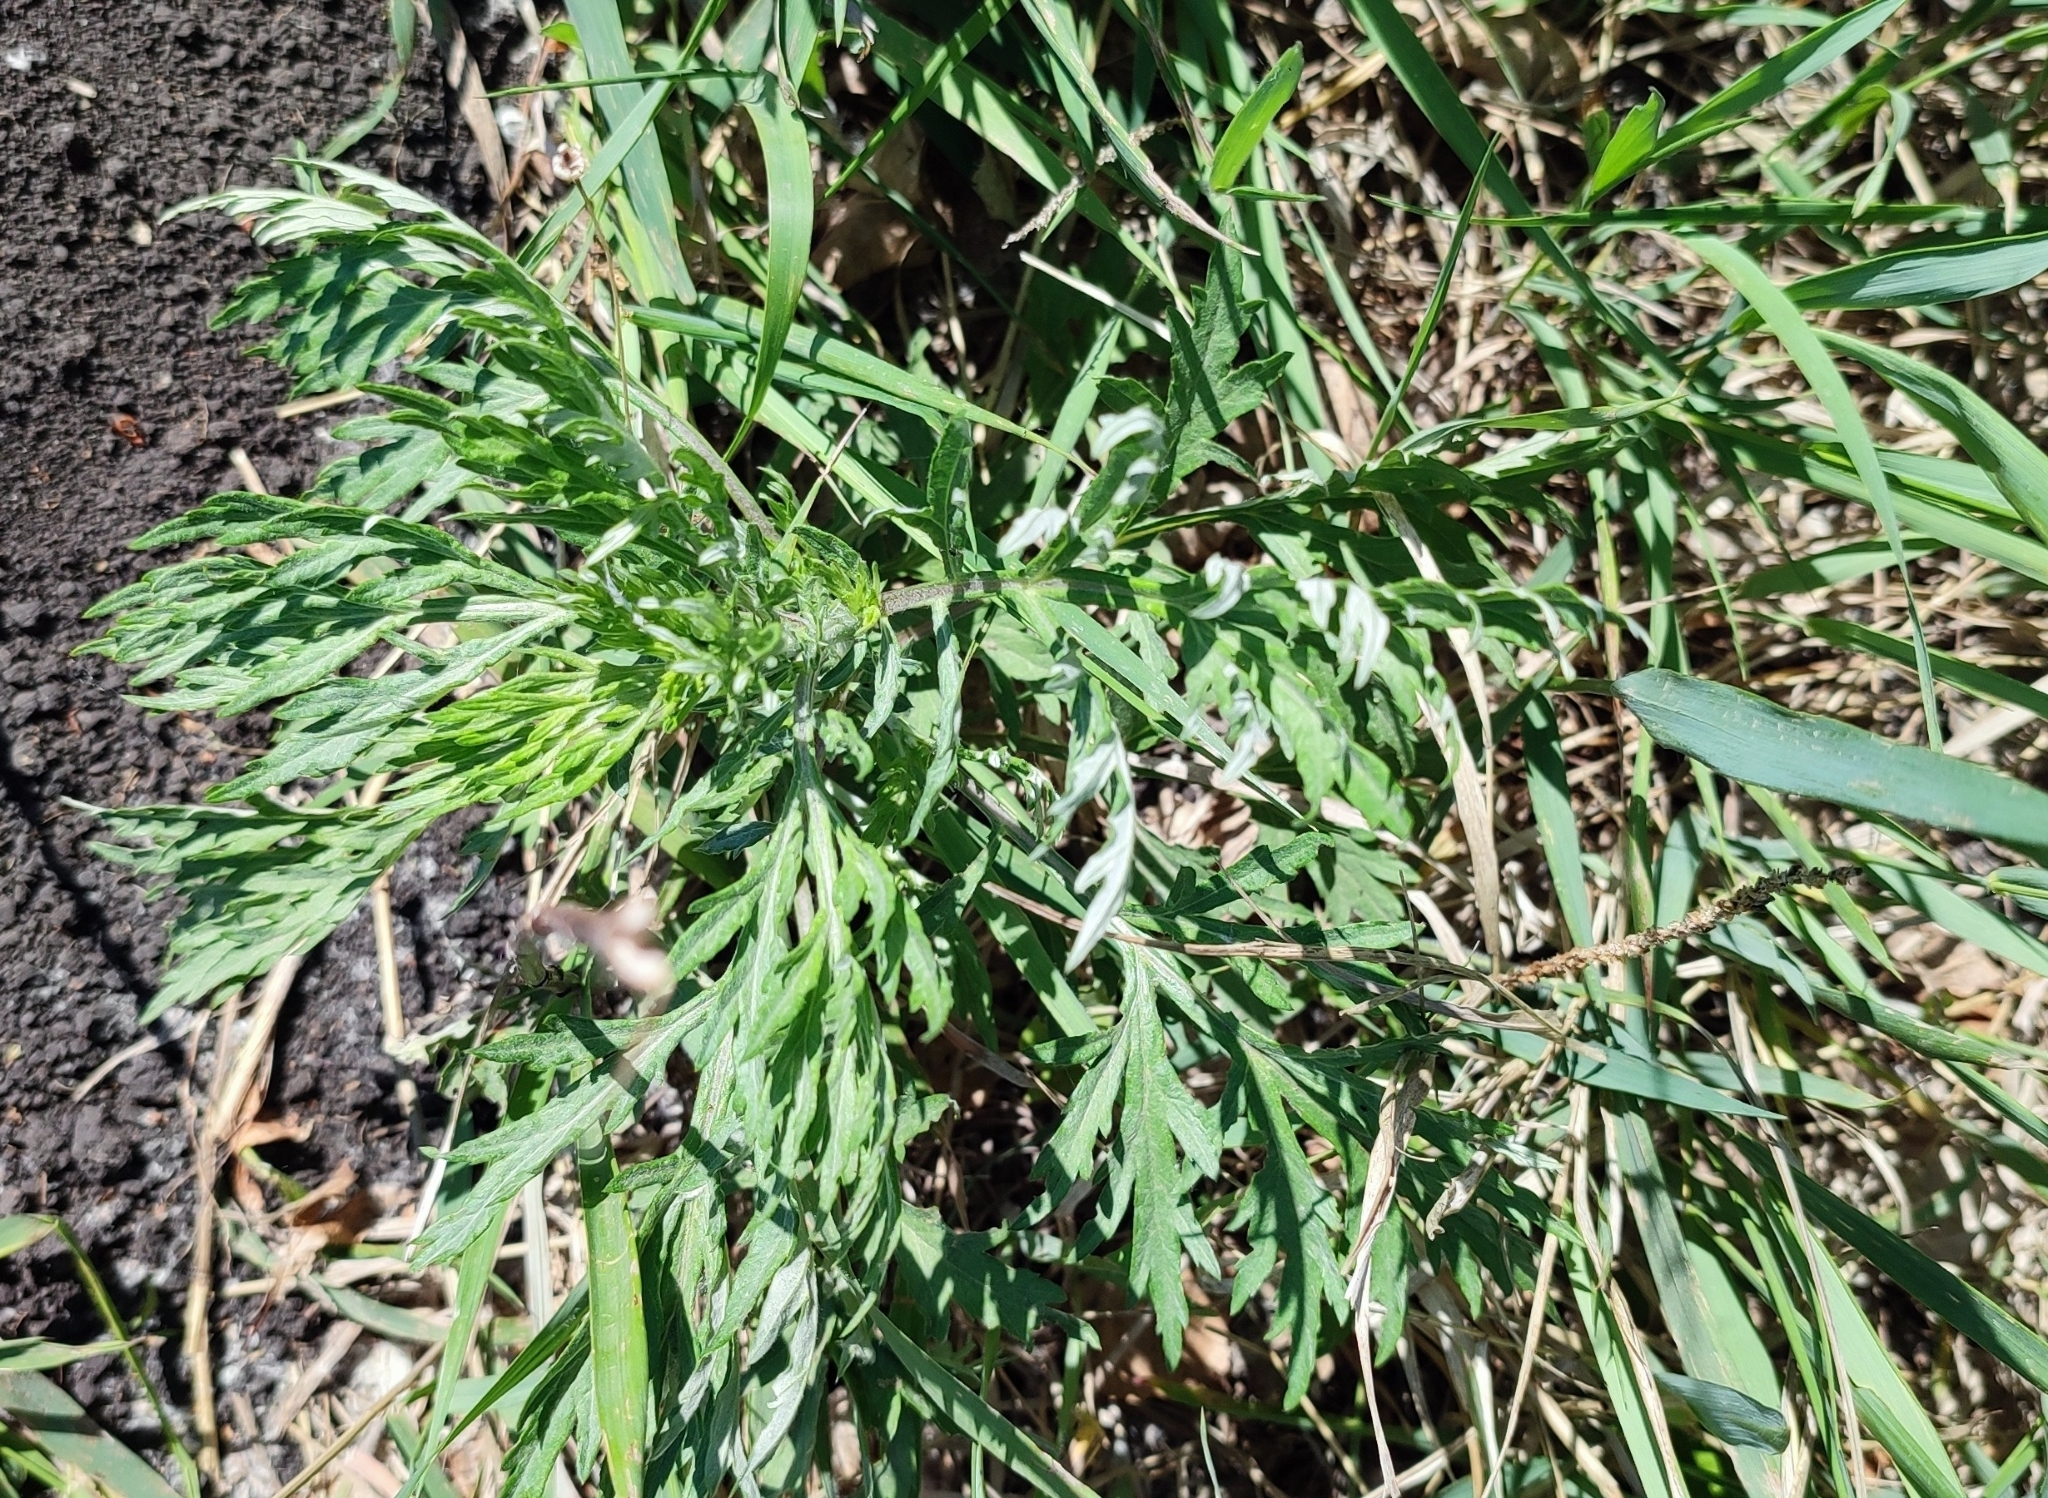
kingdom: Plantae
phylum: Tracheophyta
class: Magnoliopsida
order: Asterales
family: Asteraceae
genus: Artemisia
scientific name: Artemisia vulgaris
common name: Mugwort
